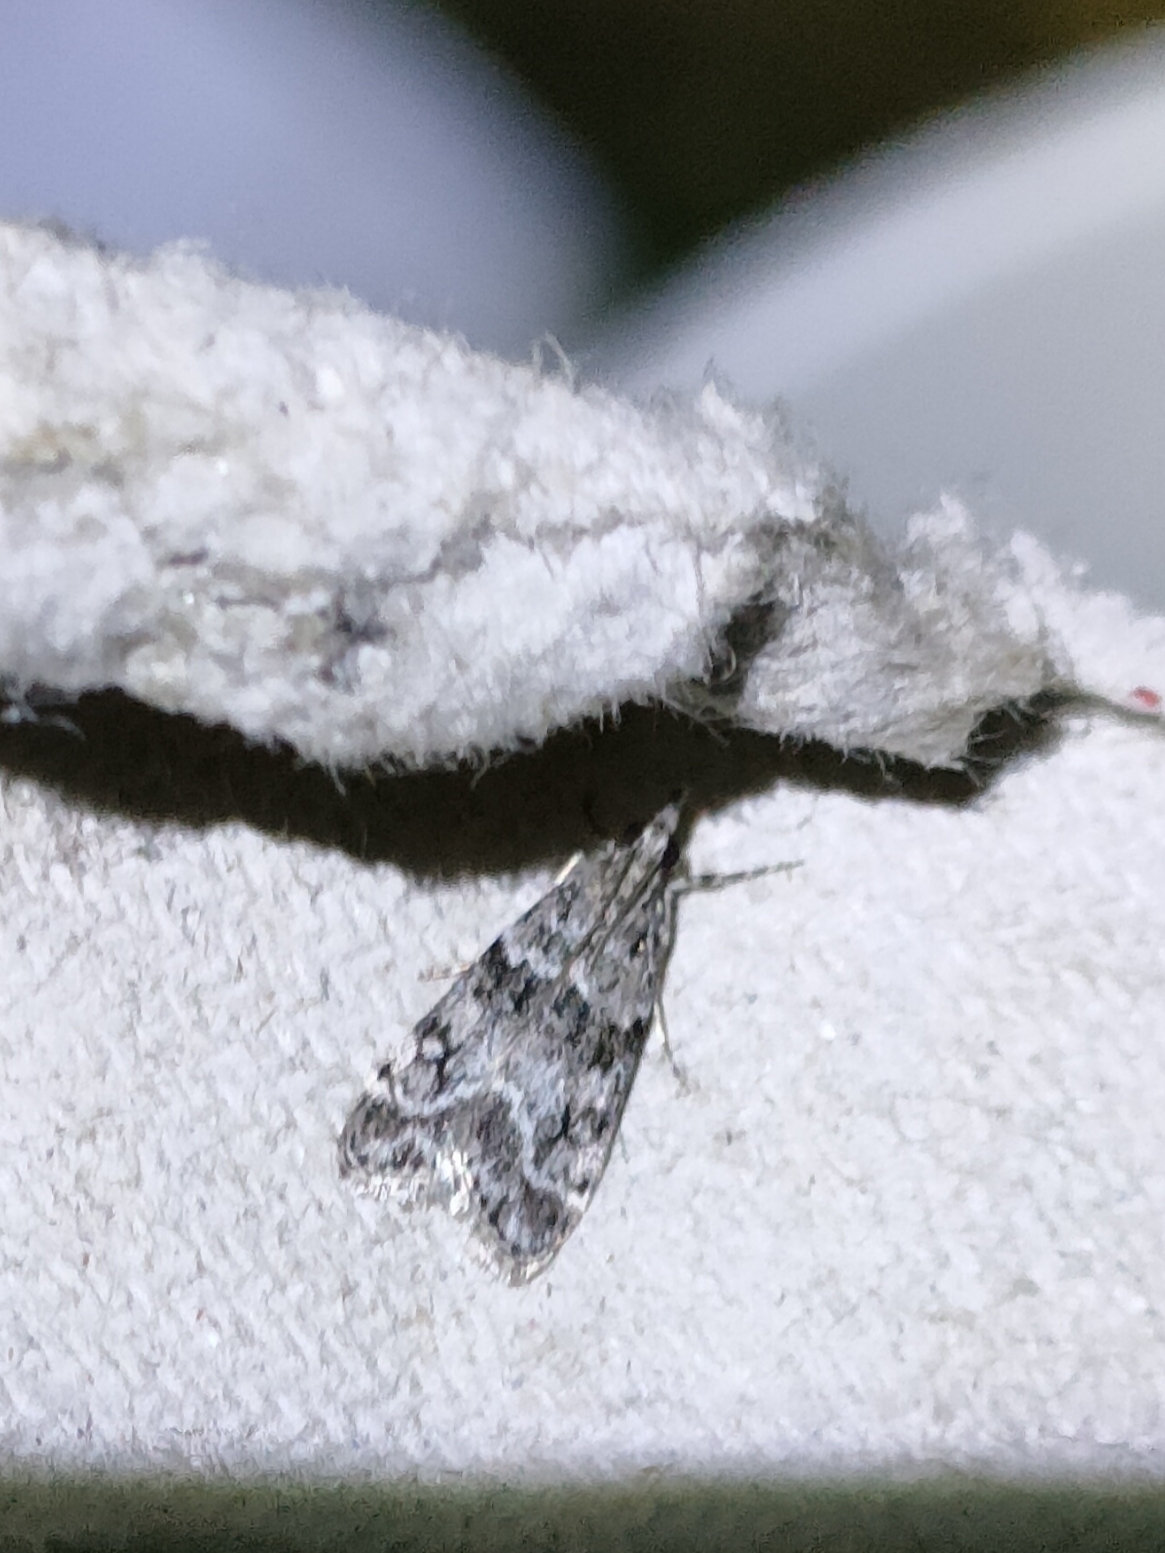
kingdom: Animalia
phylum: Arthropoda
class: Insecta
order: Lepidoptera
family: Crambidae
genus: Eudonia
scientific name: Eudonia mercurella
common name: Small grey
